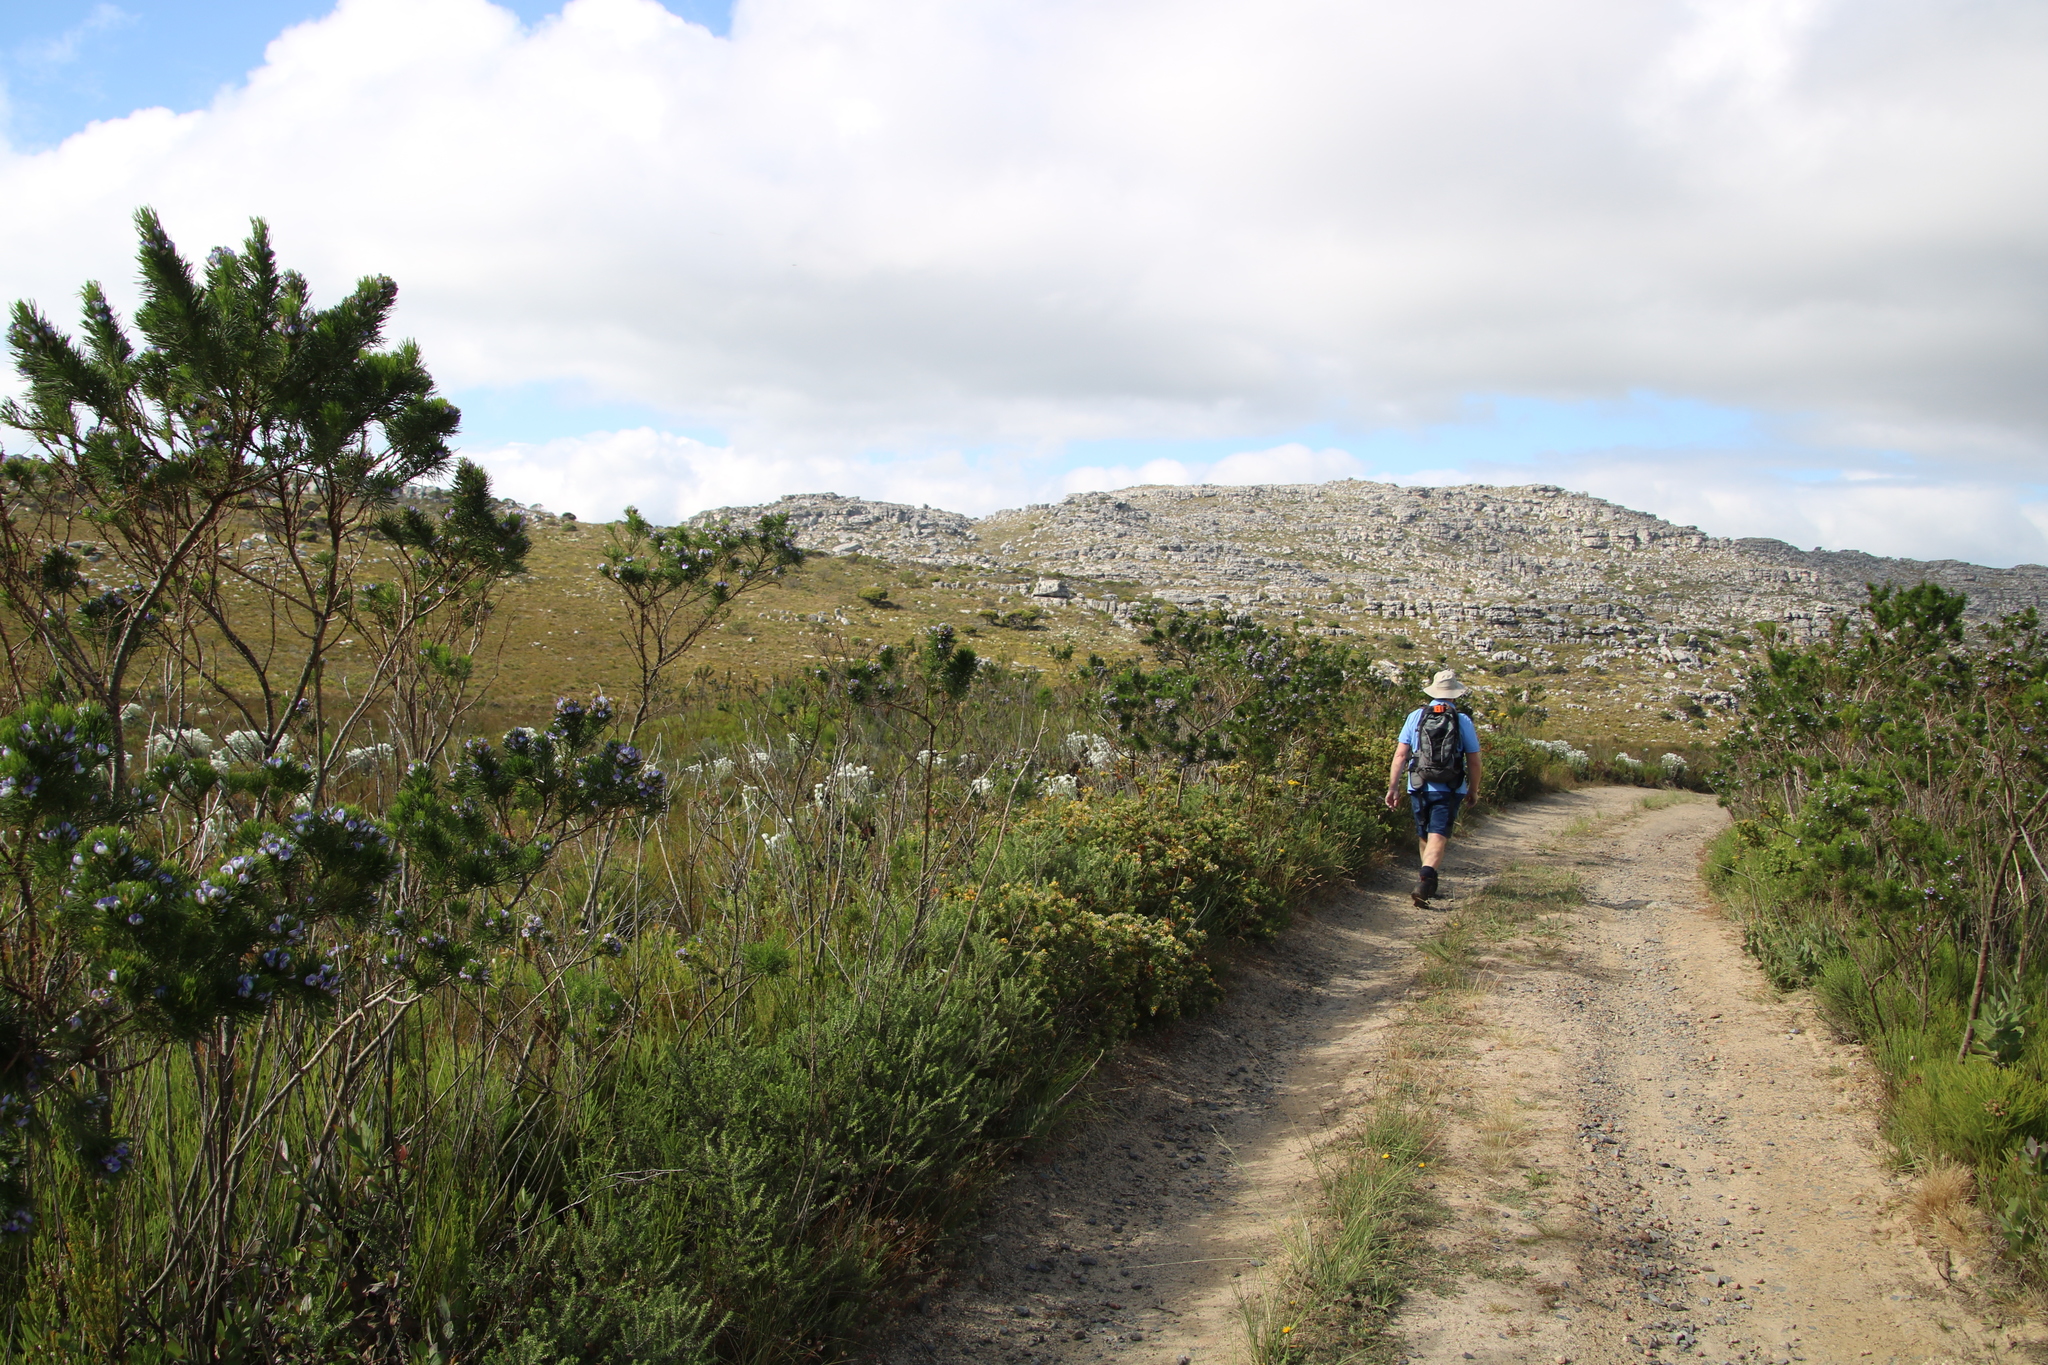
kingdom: Plantae
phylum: Tracheophyta
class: Magnoliopsida
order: Fabales
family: Fabaceae
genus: Psoralea
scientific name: Psoralea pinnata
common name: African scurfpea
